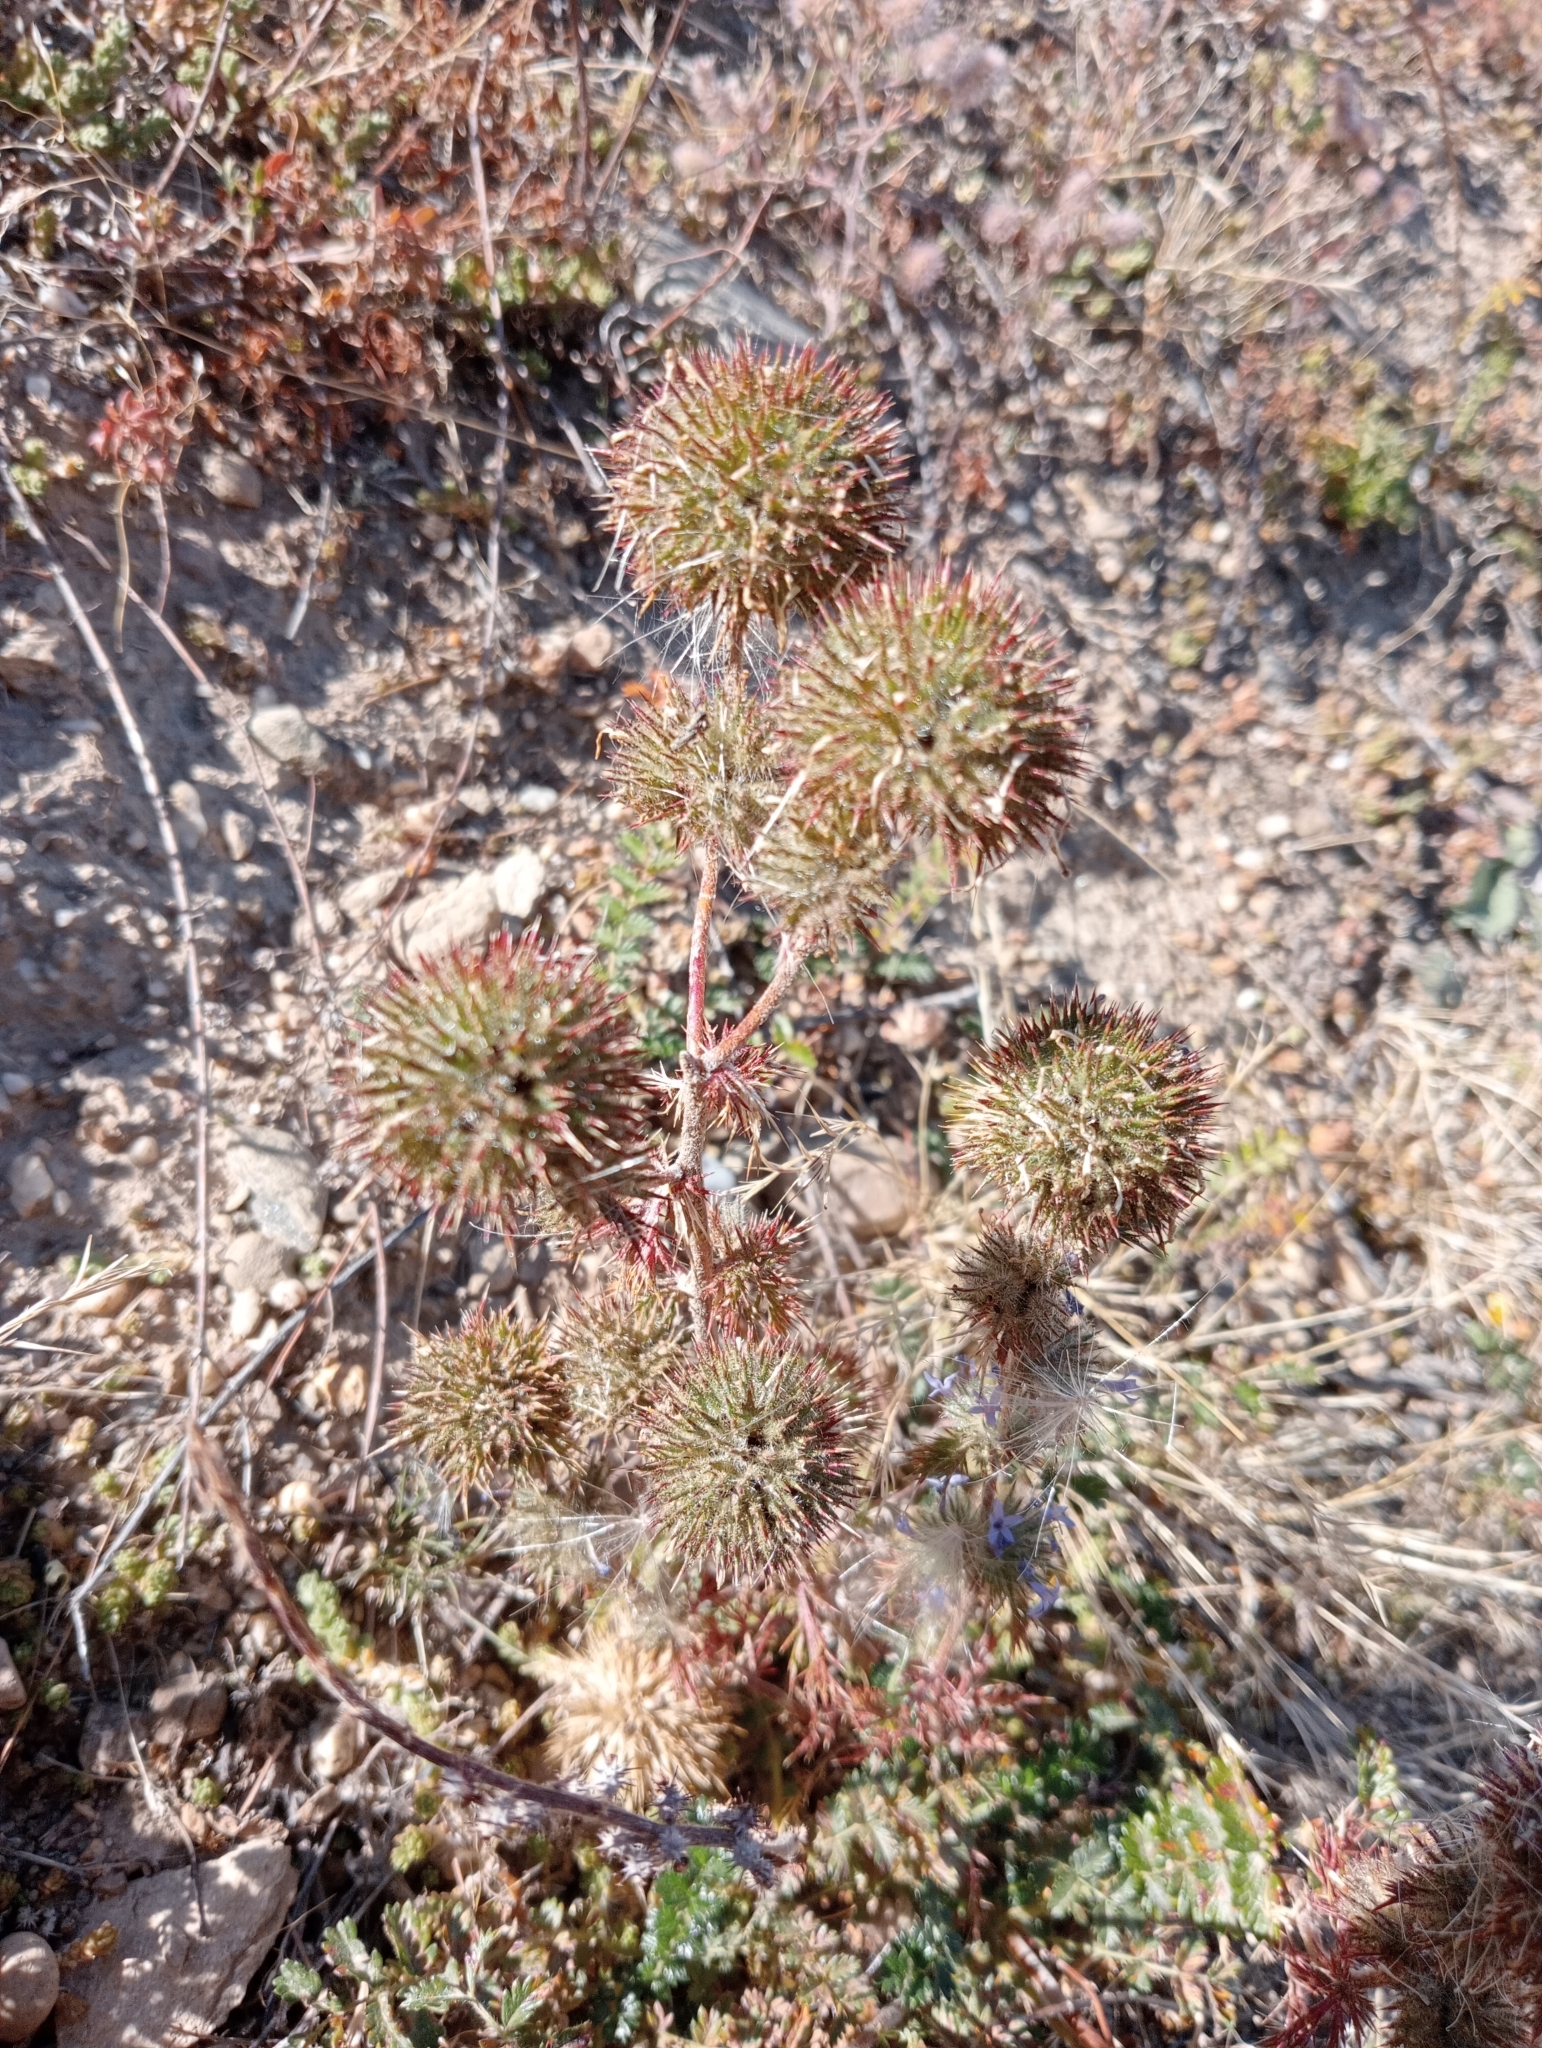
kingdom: Plantae
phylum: Tracheophyta
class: Magnoliopsida
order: Ericales
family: Polemoniaceae
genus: Navarretia
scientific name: Navarretia squarrosa
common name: Skunkweed
